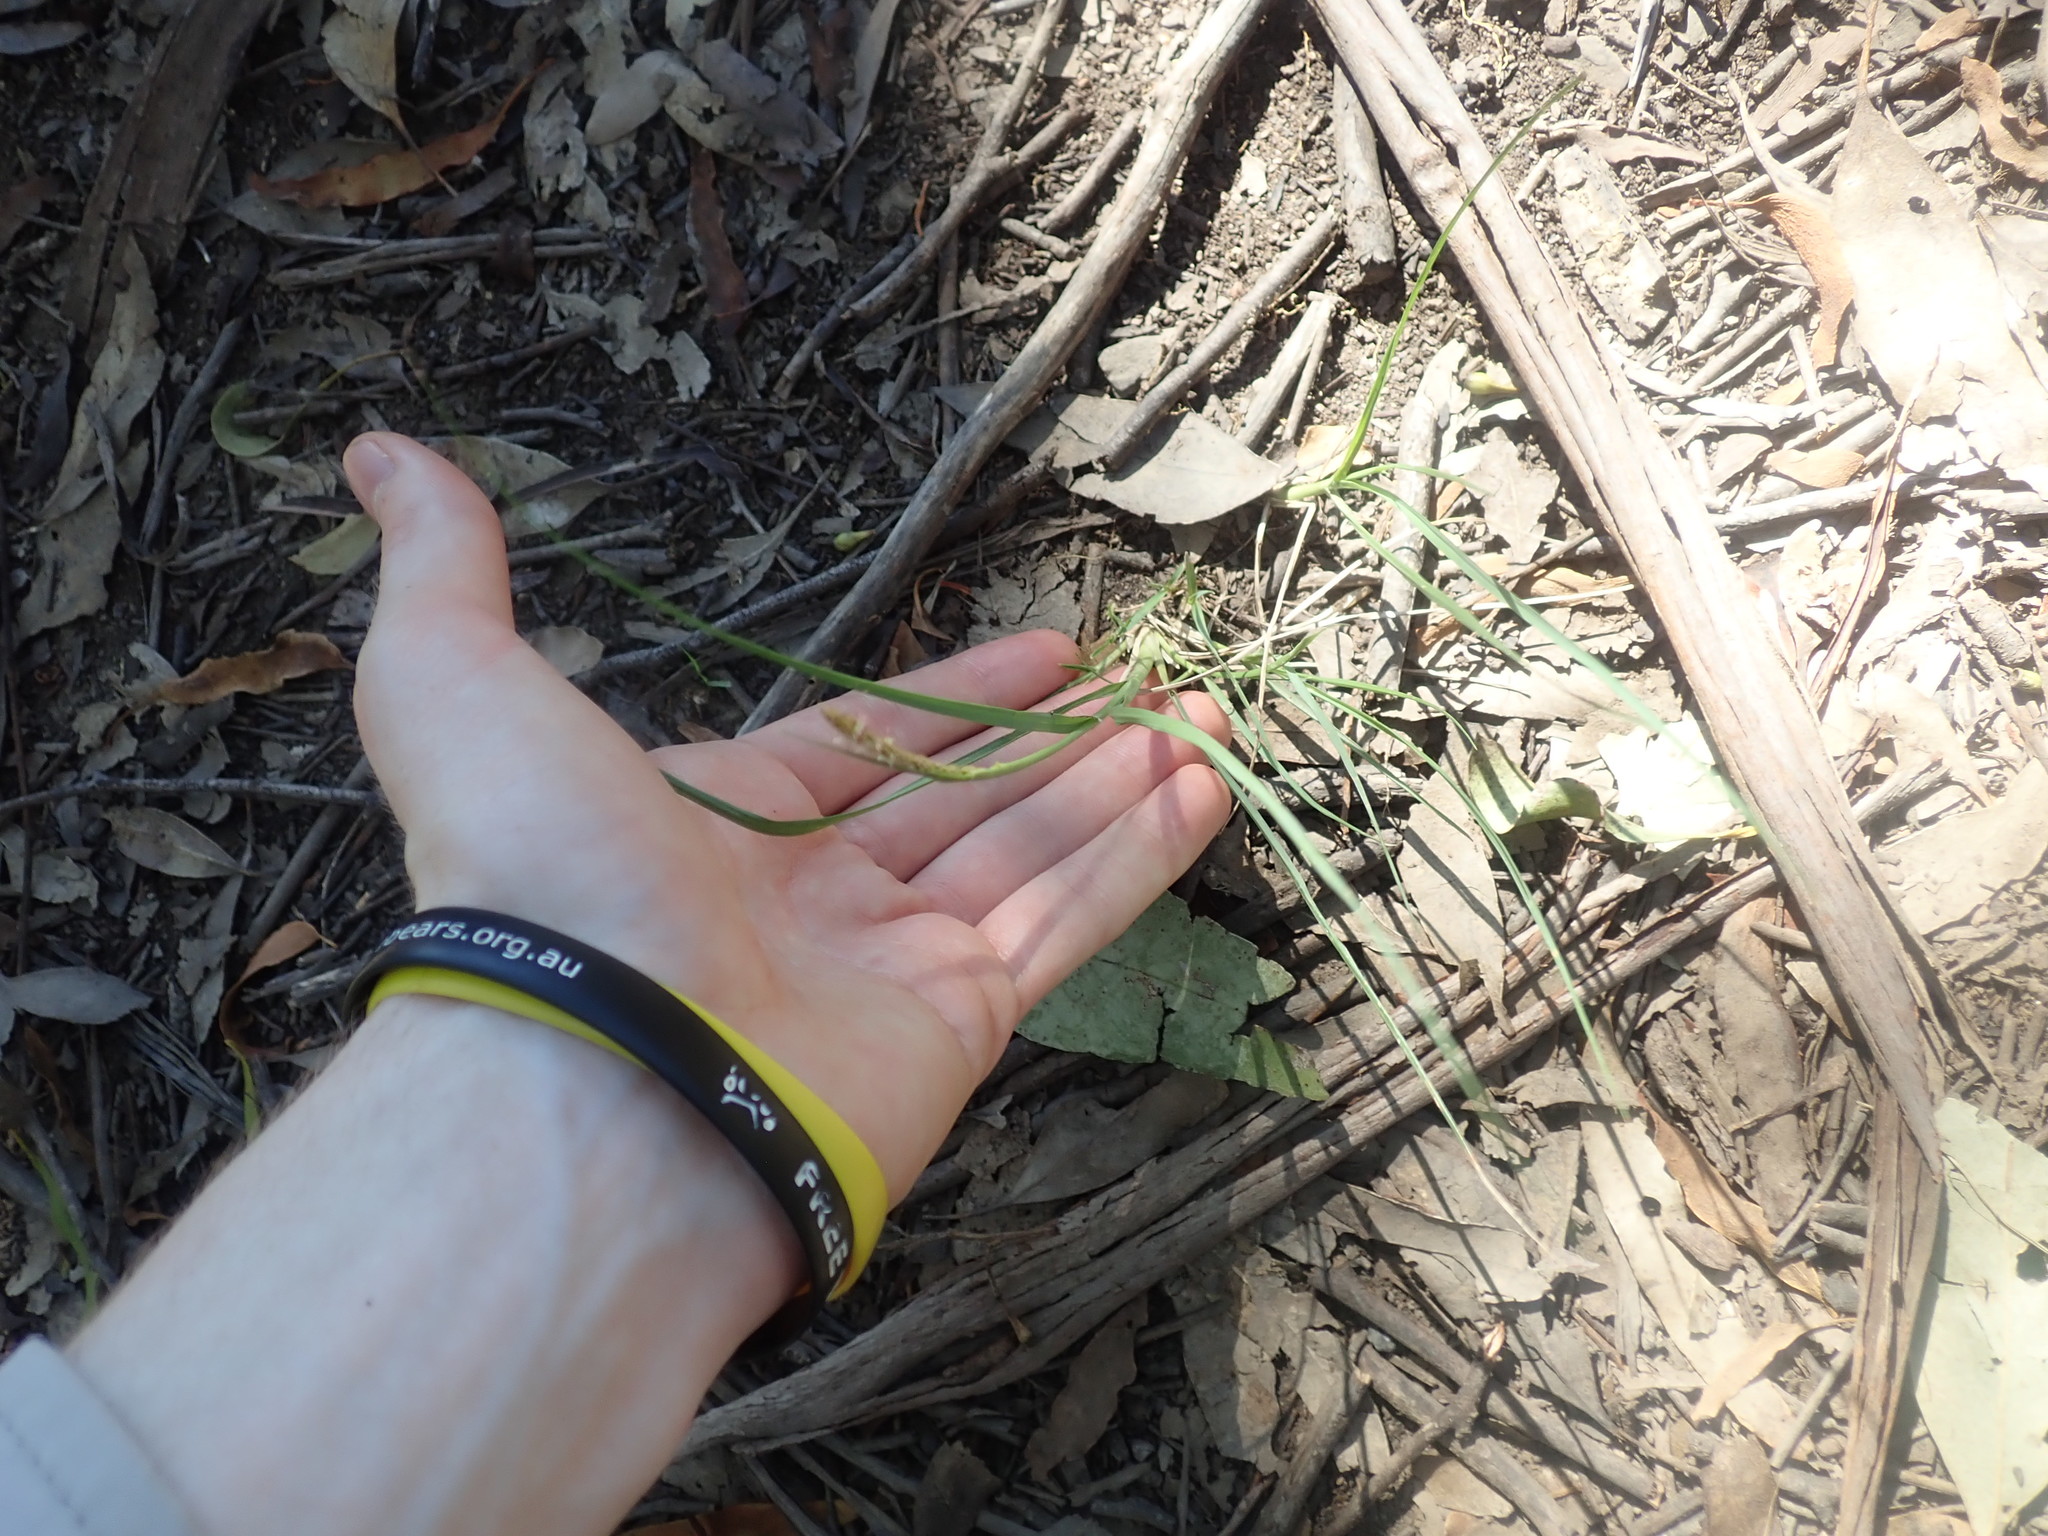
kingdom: Plantae
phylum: Tracheophyta
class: Liliopsida
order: Poales
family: Poaceae
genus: Sporobolus
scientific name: Sporobolus africanus
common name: African dropseed
